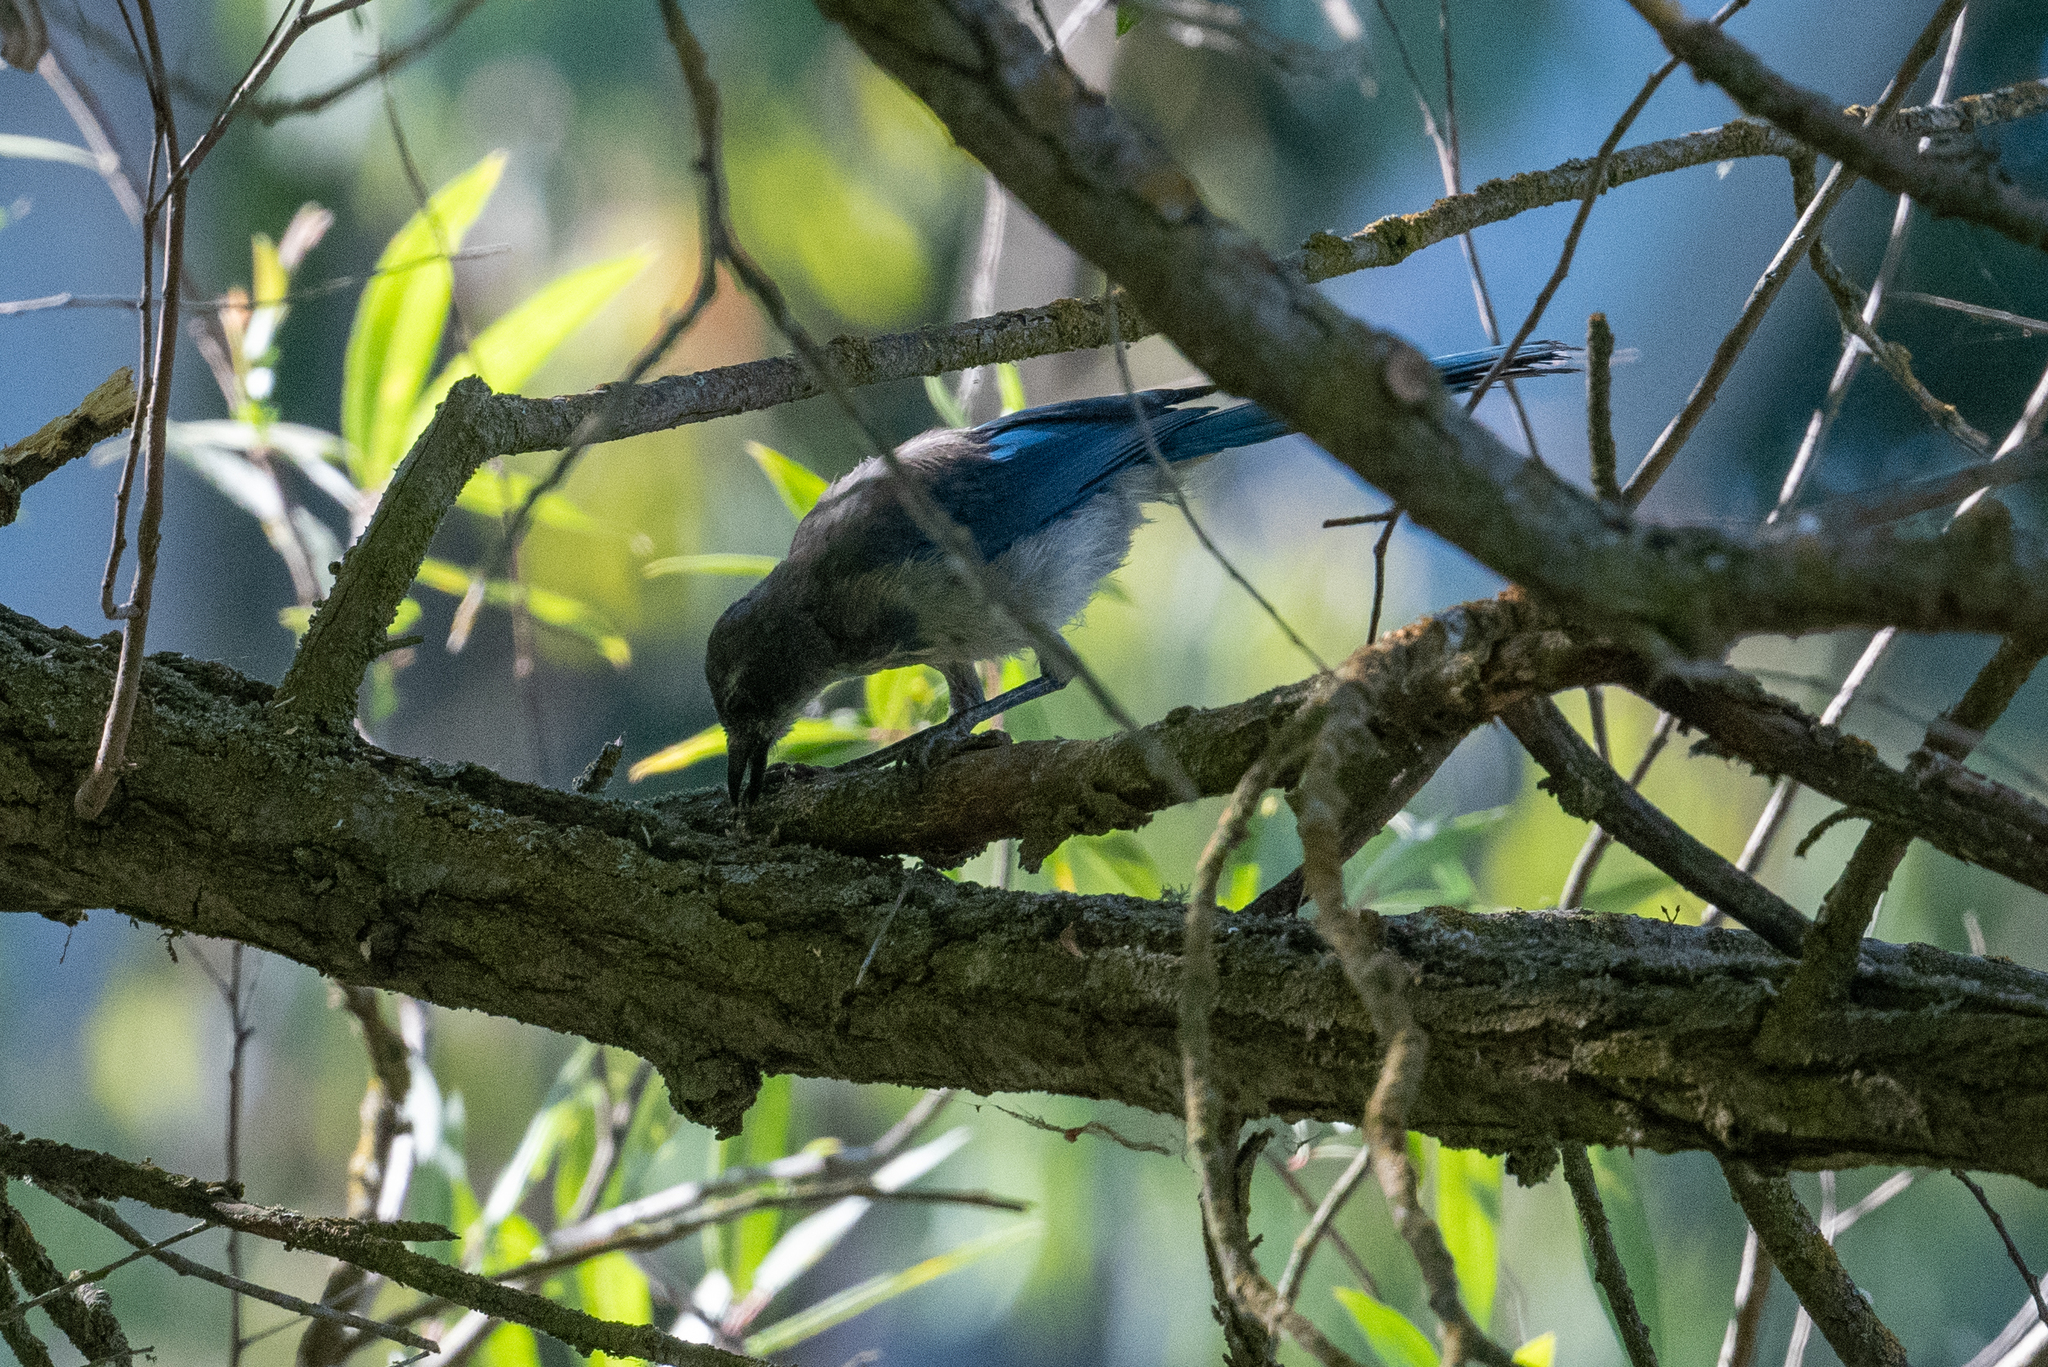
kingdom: Animalia
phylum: Chordata
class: Aves
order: Passeriformes
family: Corvidae
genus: Aphelocoma
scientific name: Aphelocoma californica
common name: California scrub-jay
